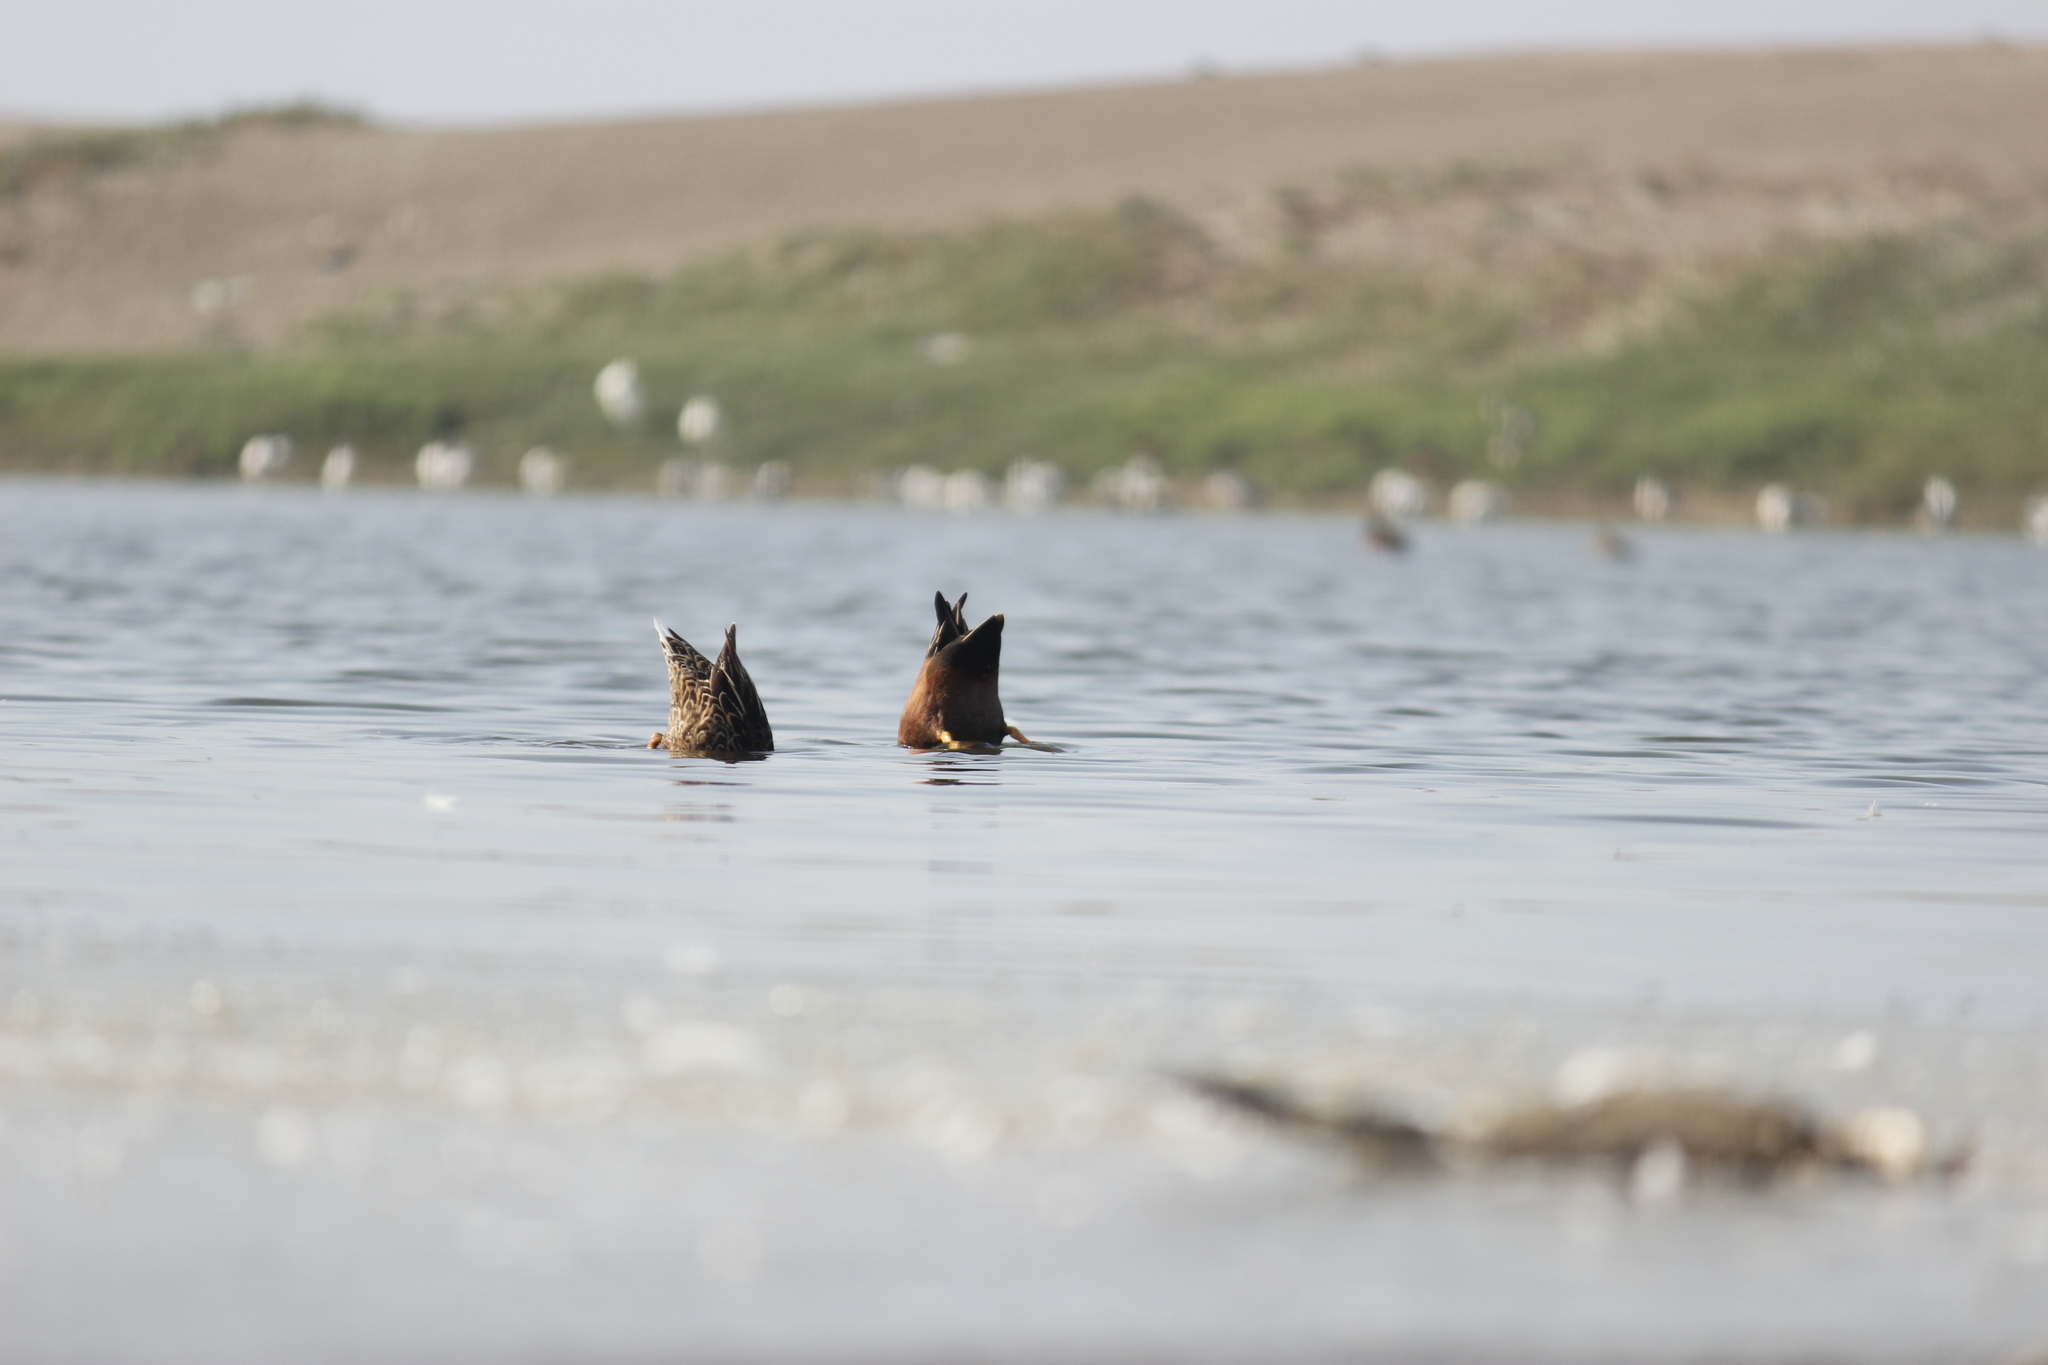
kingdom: Animalia
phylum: Chordata
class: Aves
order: Anseriformes
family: Anatidae
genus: Spatula
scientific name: Spatula cyanoptera
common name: Cinnamon teal
